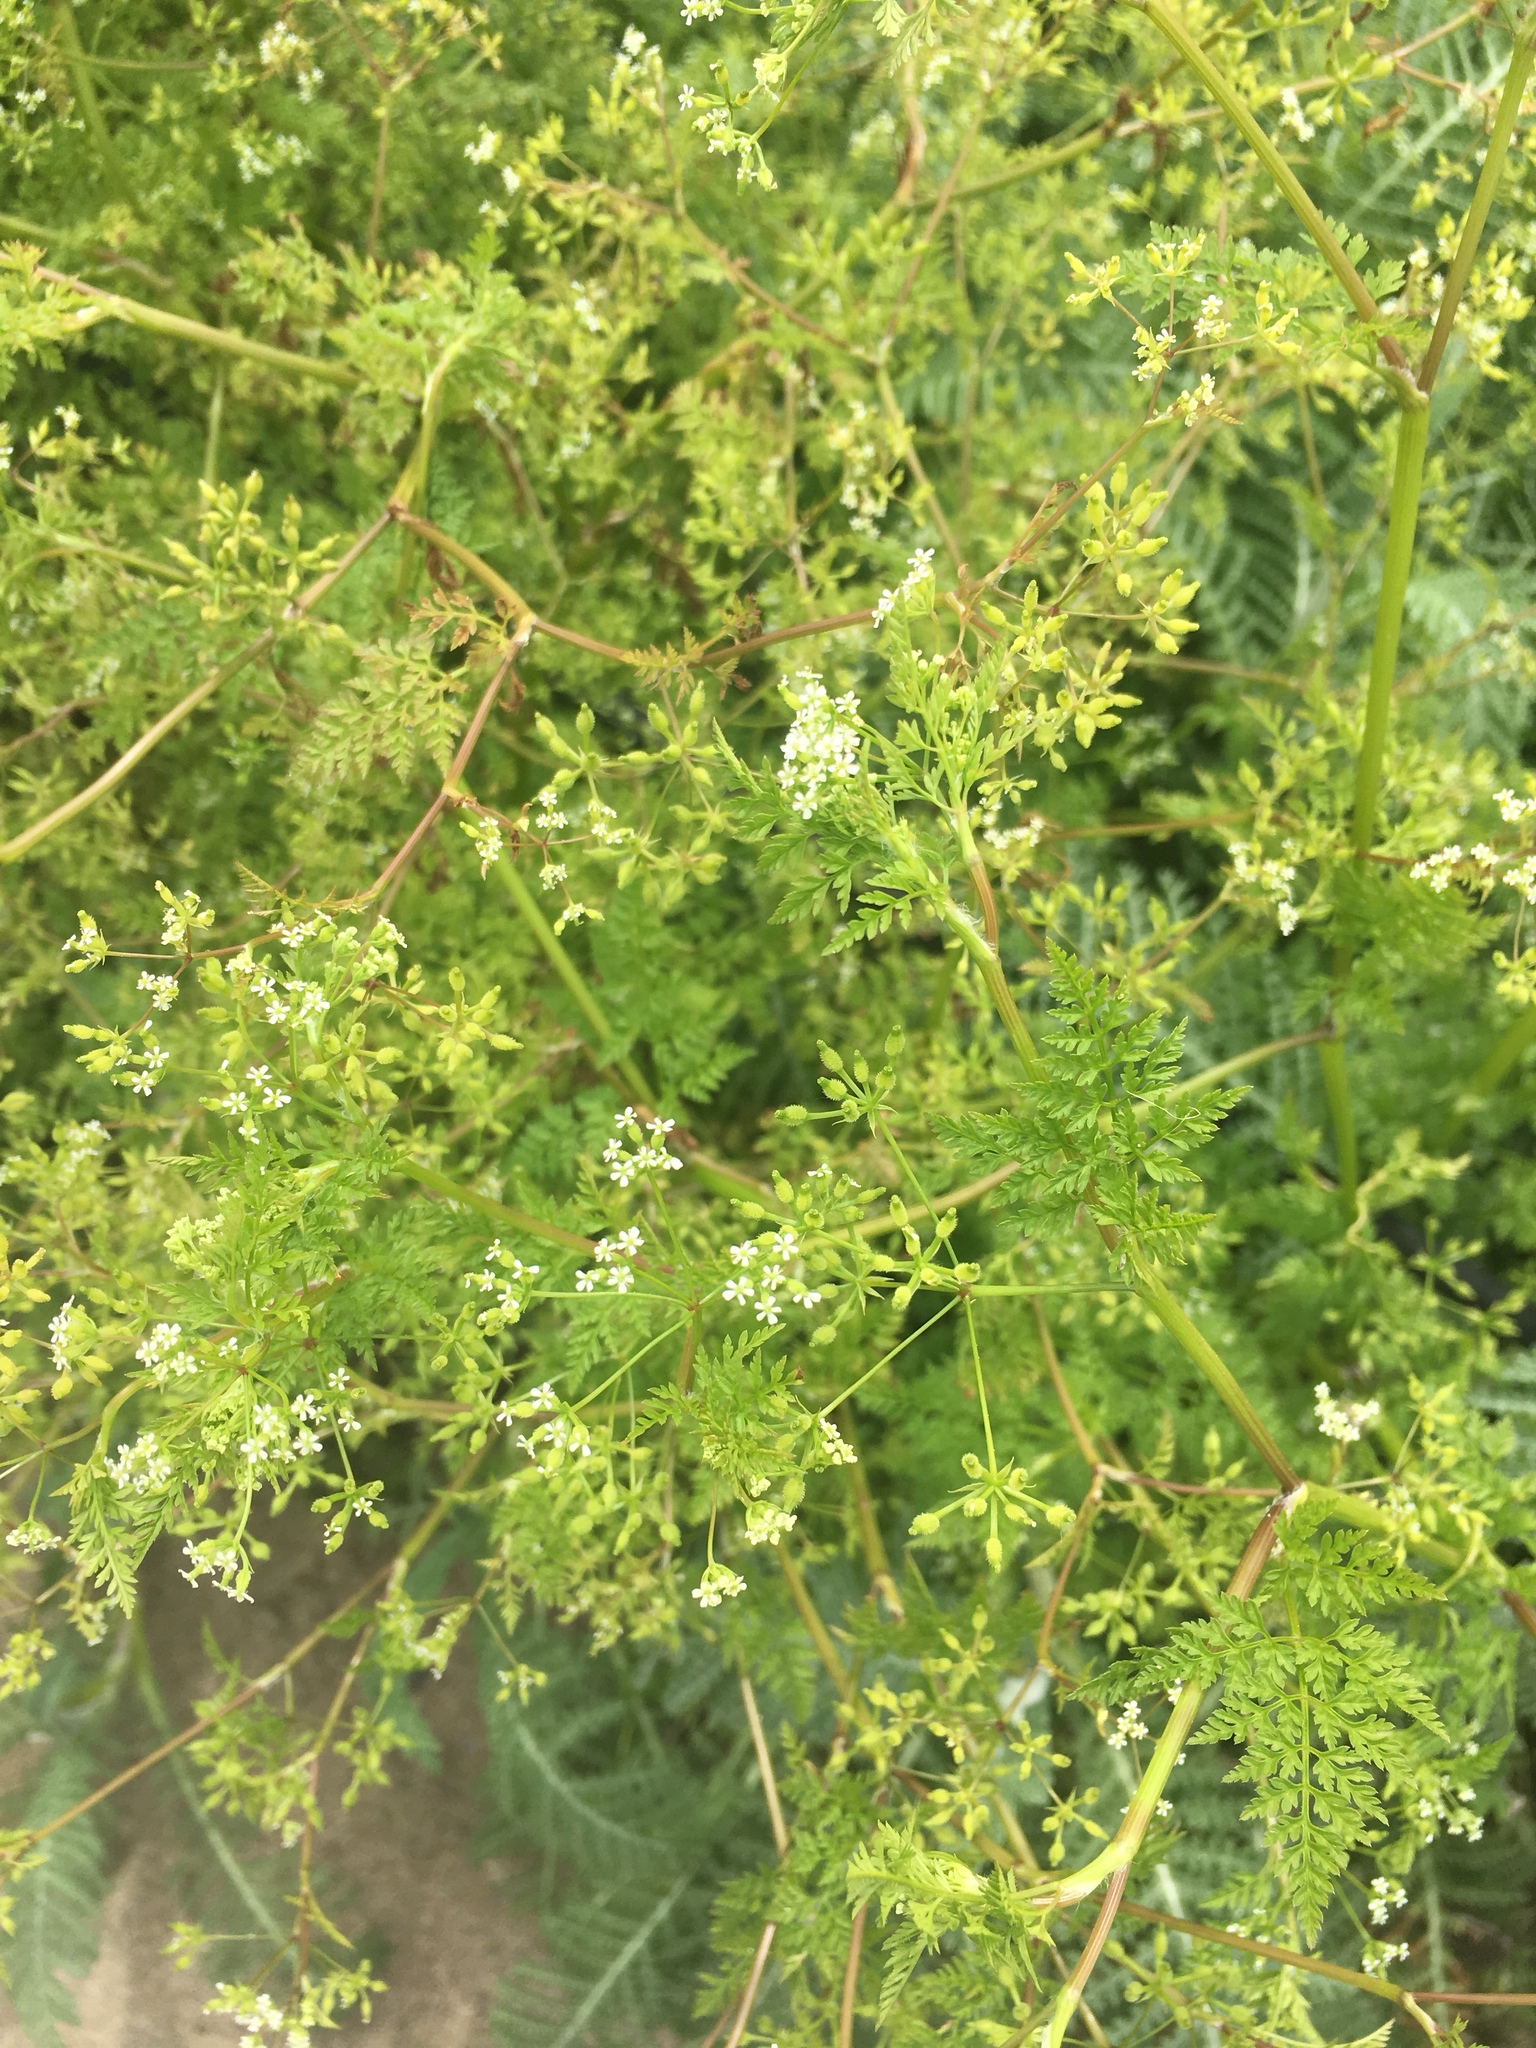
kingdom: Plantae
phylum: Tracheophyta
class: Magnoliopsida
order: Apiales
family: Apiaceae
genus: Anthriscus
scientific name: Anthriscus caucalis
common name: Bur chervil
